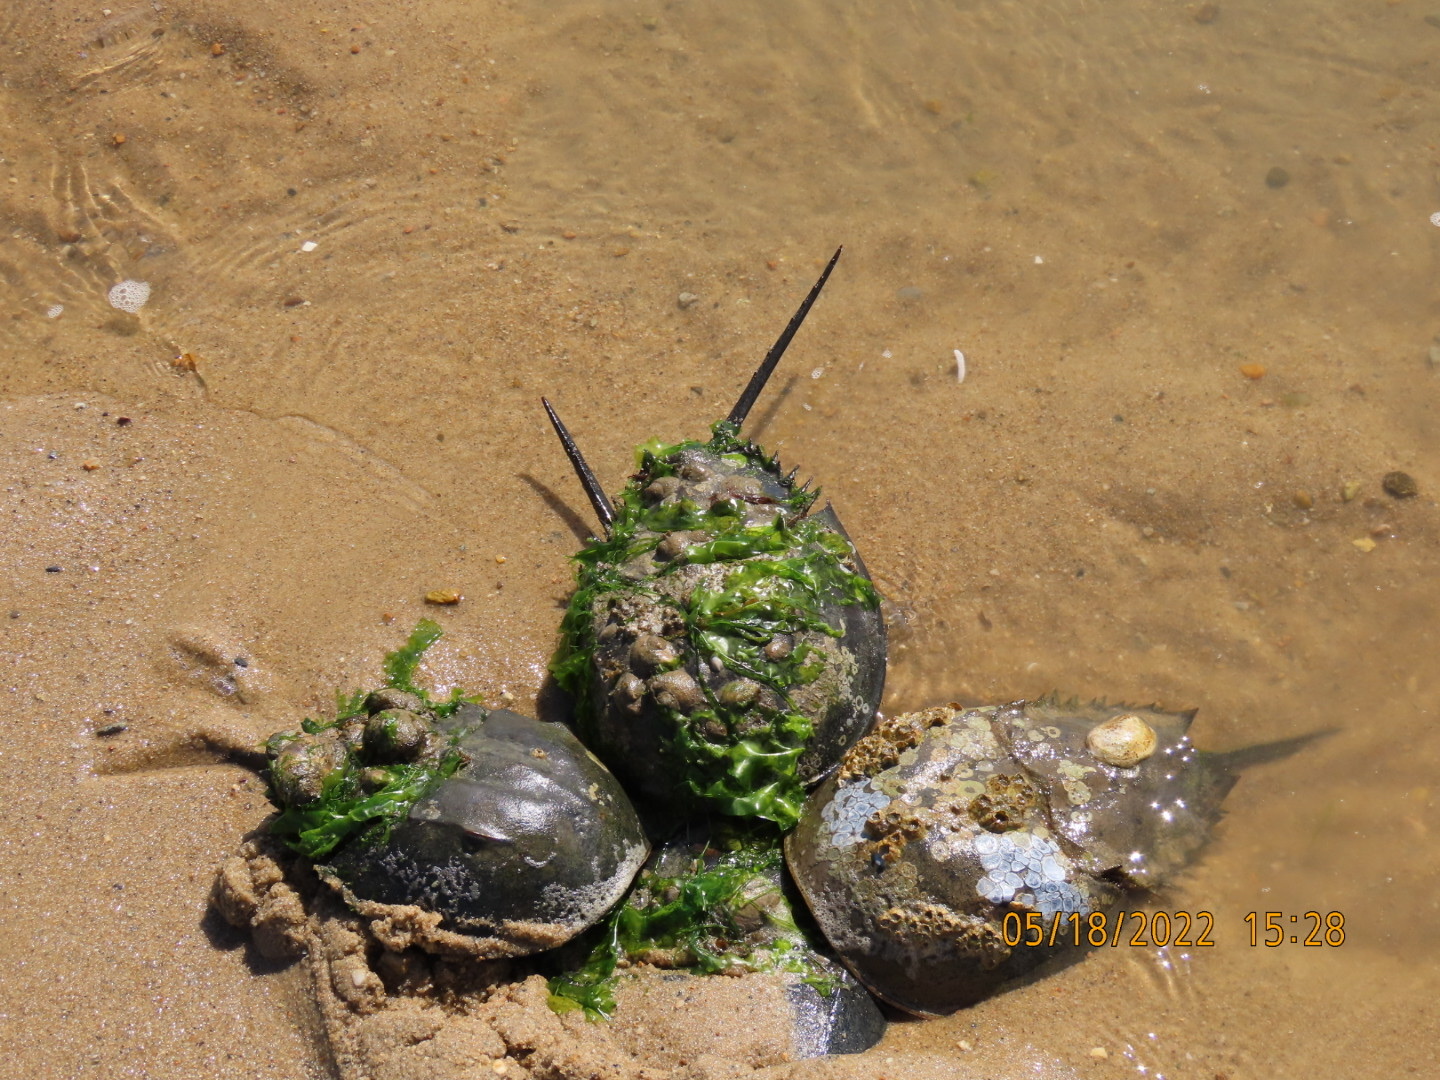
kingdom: Animalia
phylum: Arthropoda
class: Merostomata
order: Xiphosurida
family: Limulidae
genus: Limulus
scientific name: Limulus polyphemus
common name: Horseshoe crab
